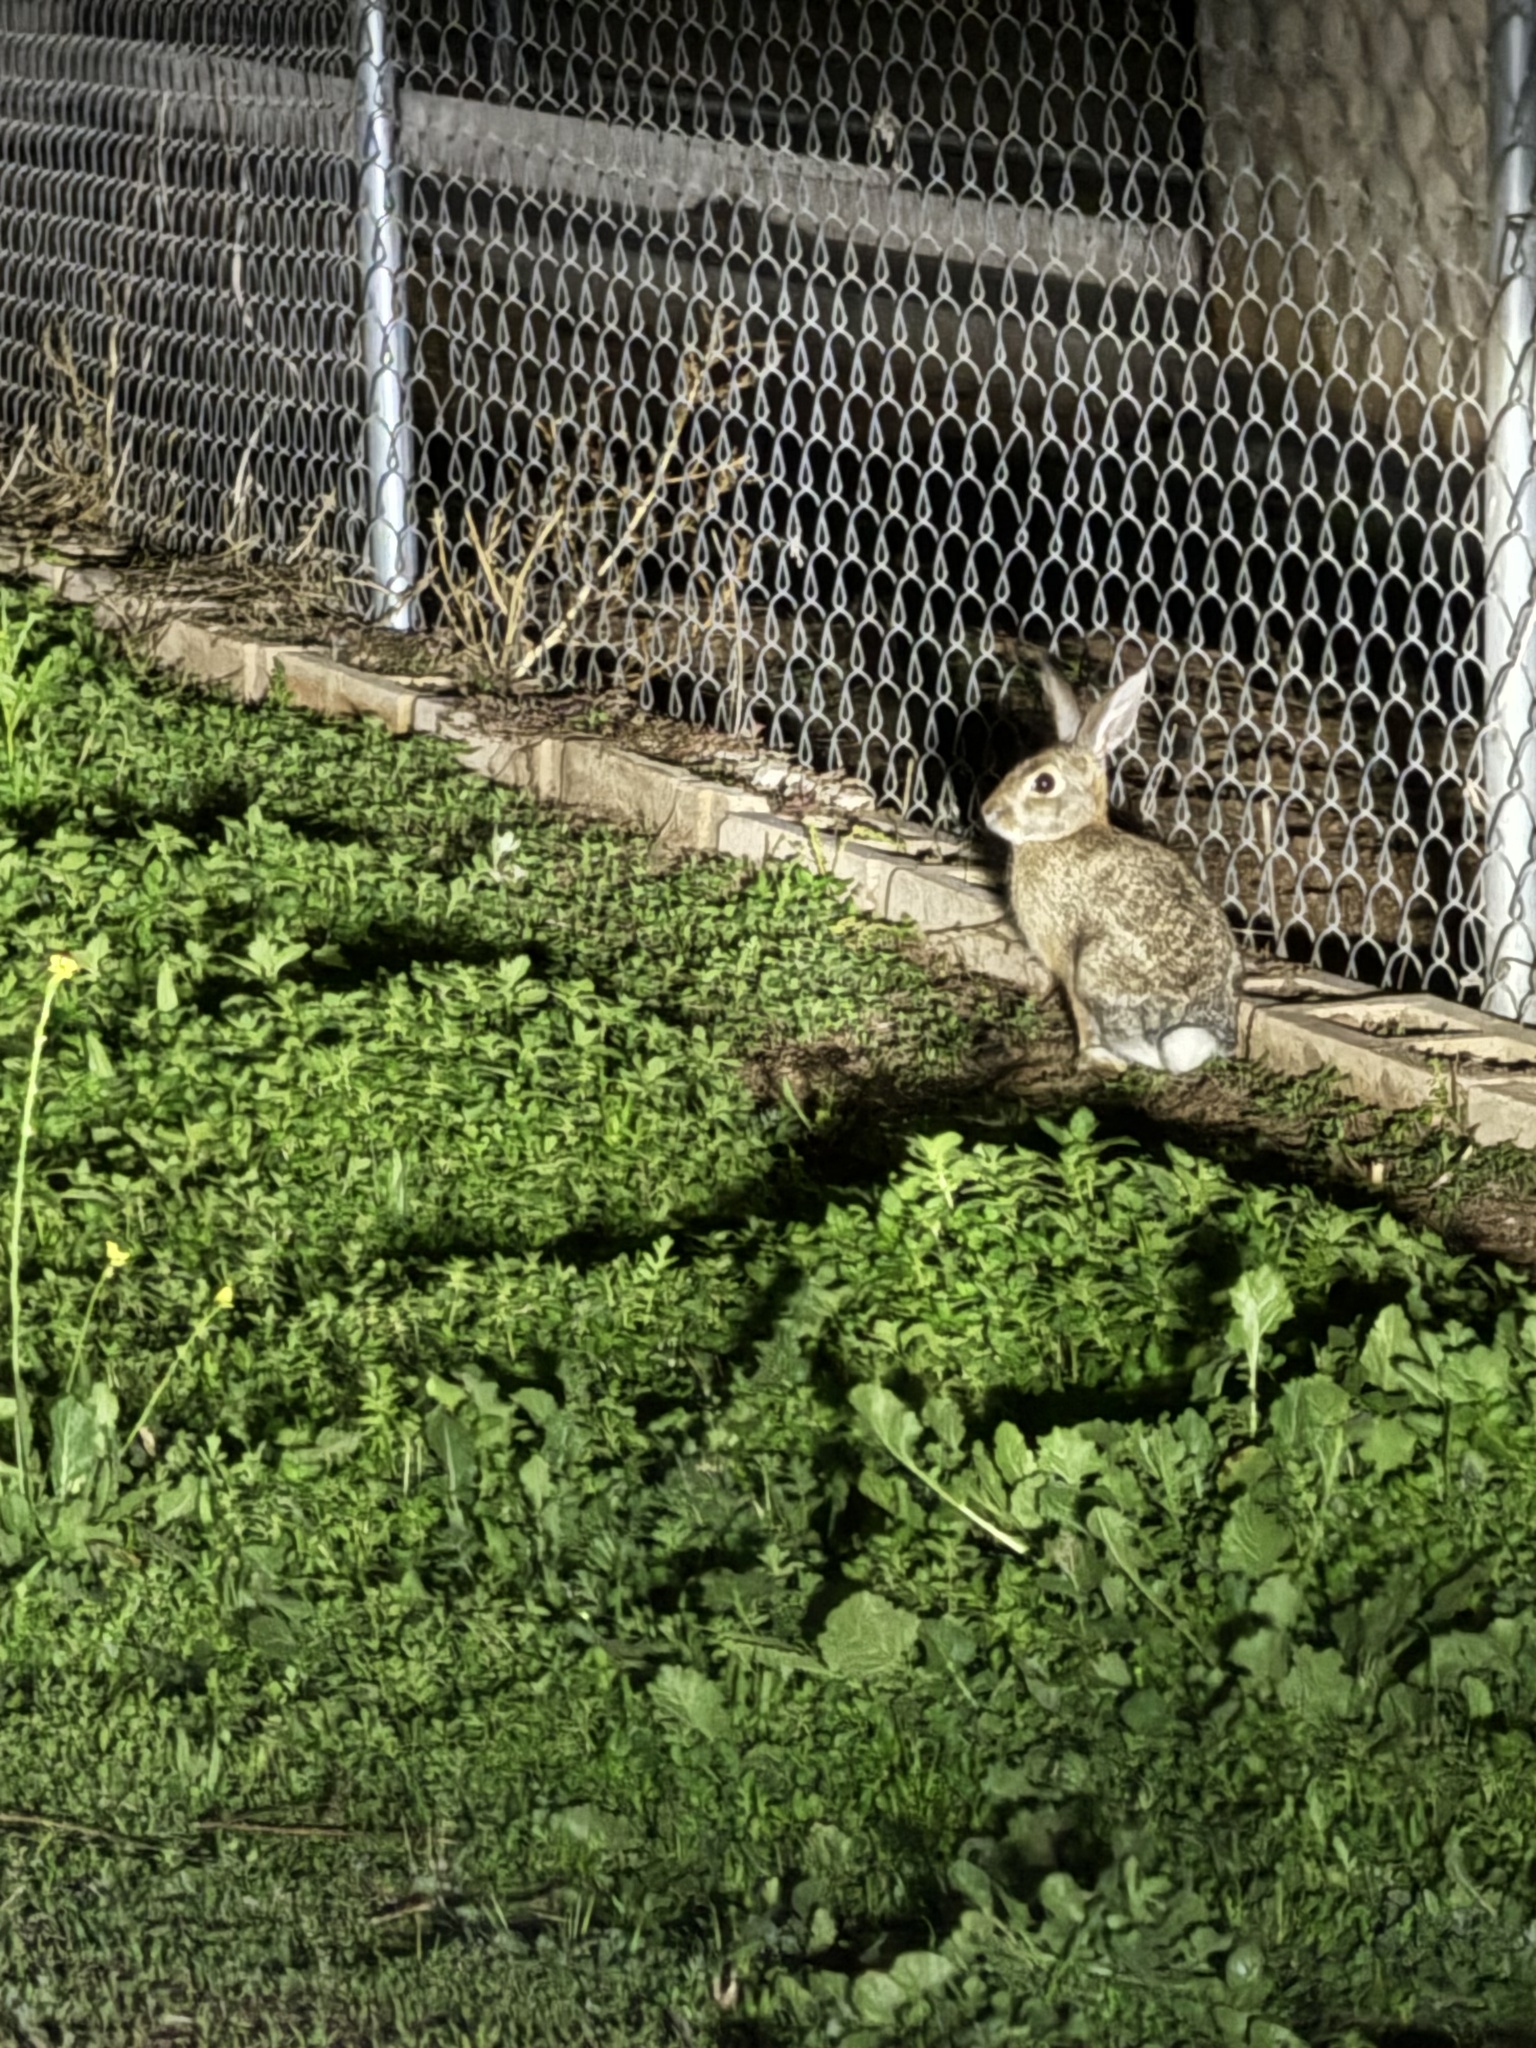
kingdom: Animalia
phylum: Chordata
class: Mammalia
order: Lagomorpha
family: Leporidae
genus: Sylvilagus
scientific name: Sylvilagus audubonii
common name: Desert cottontail
